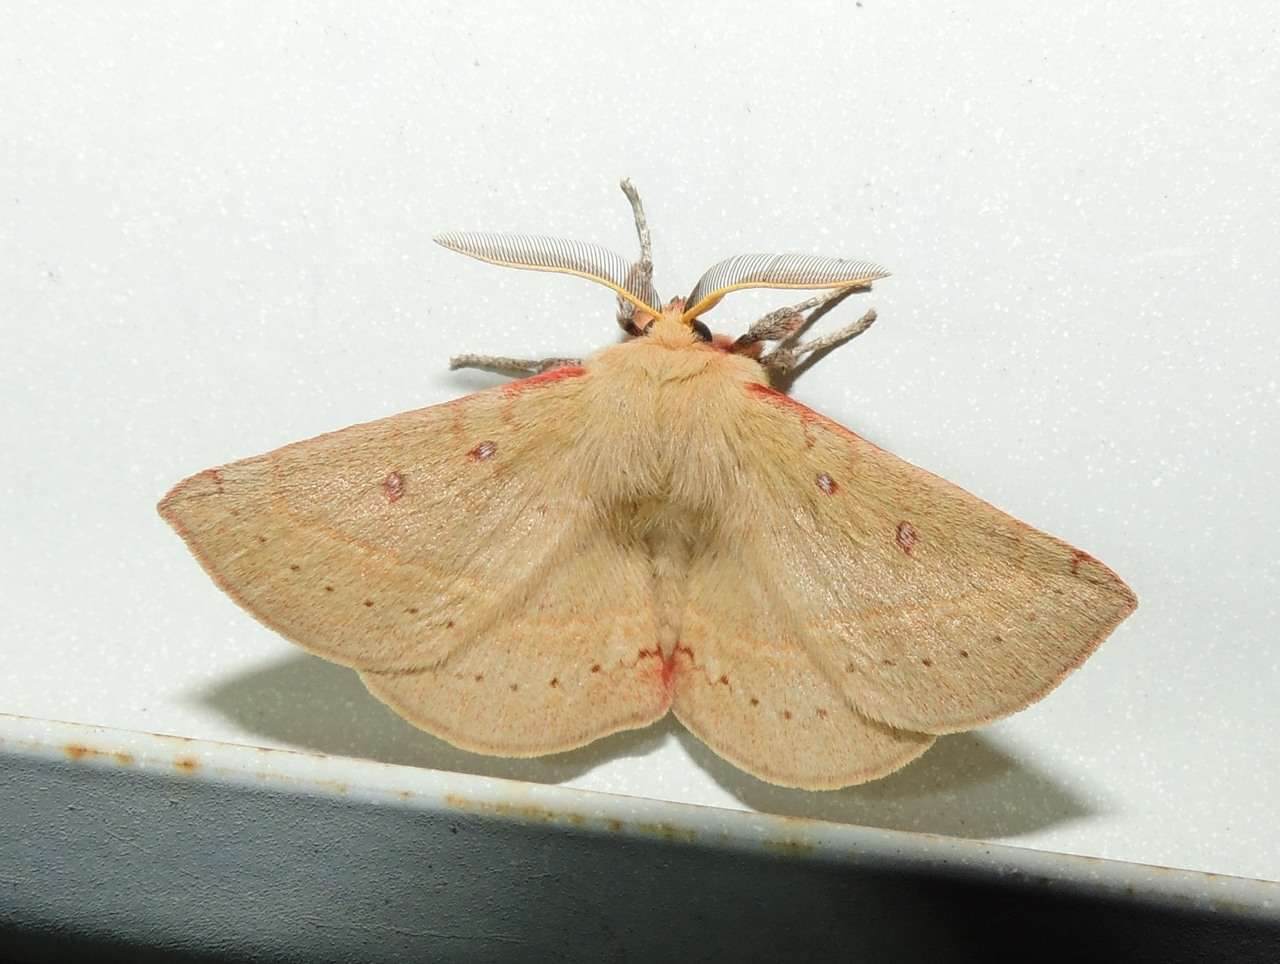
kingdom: Animalia
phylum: Arthropoda
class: Insecta
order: Lepidoptera
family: Anthelidae
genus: Anthela
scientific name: Anthela acuta
